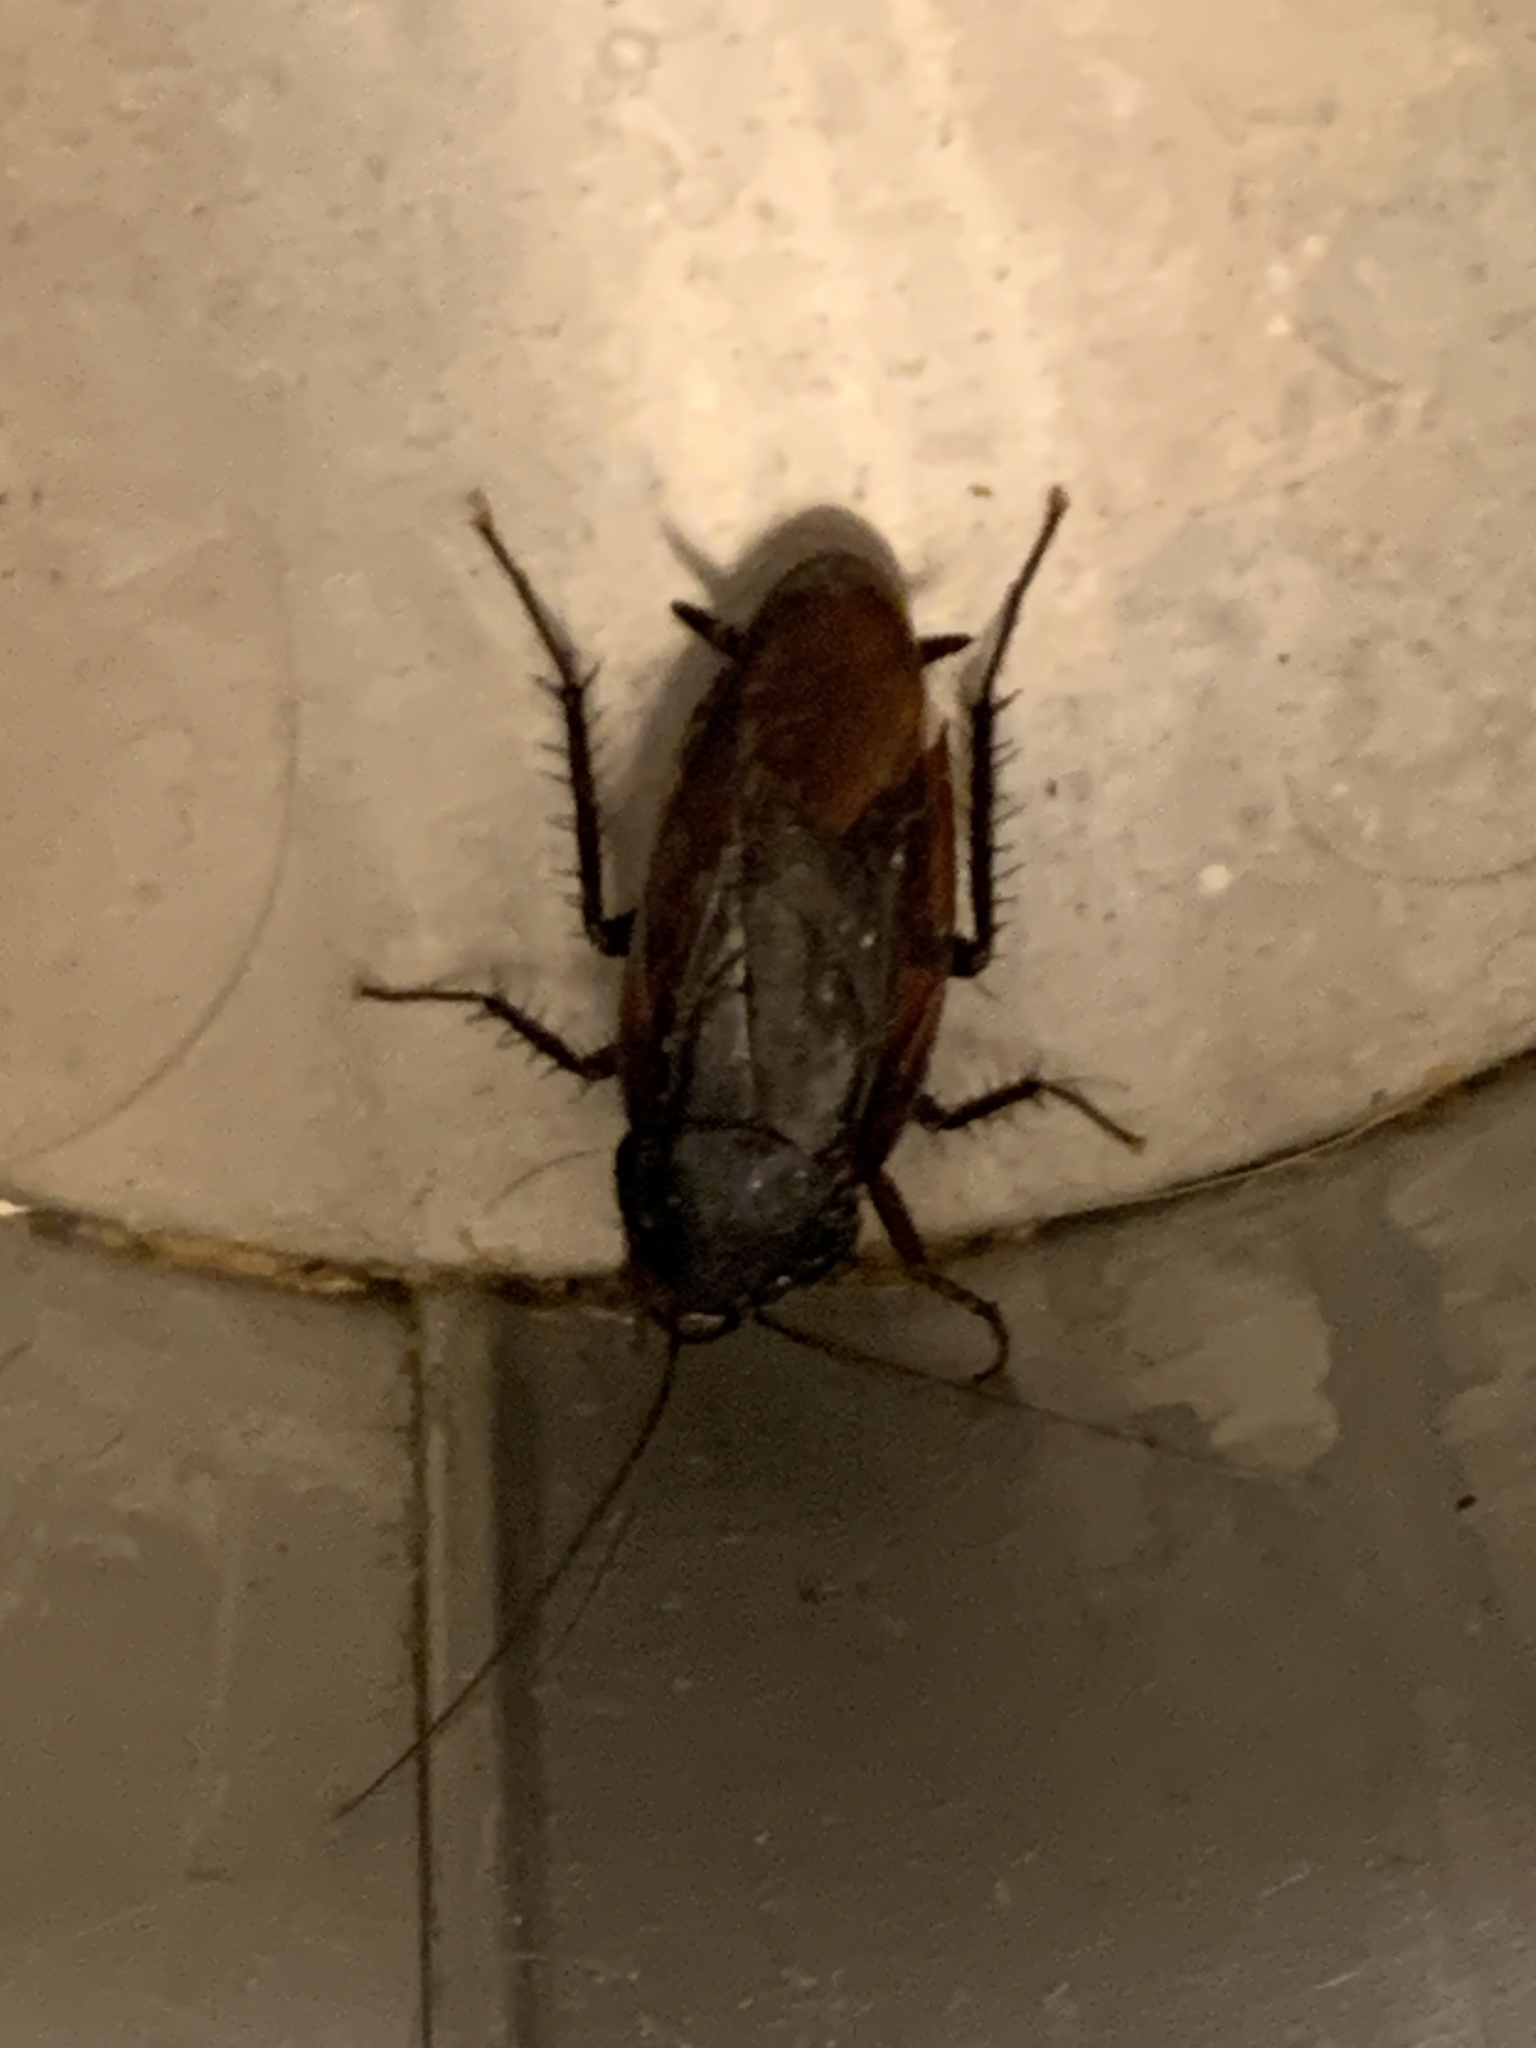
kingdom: Animalia
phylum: Arthropoda
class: Insecta
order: Blattodea
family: Blattidae
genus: Periplaneta
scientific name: Periplaneta fuliginosa
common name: Smokeybrown cockroad
